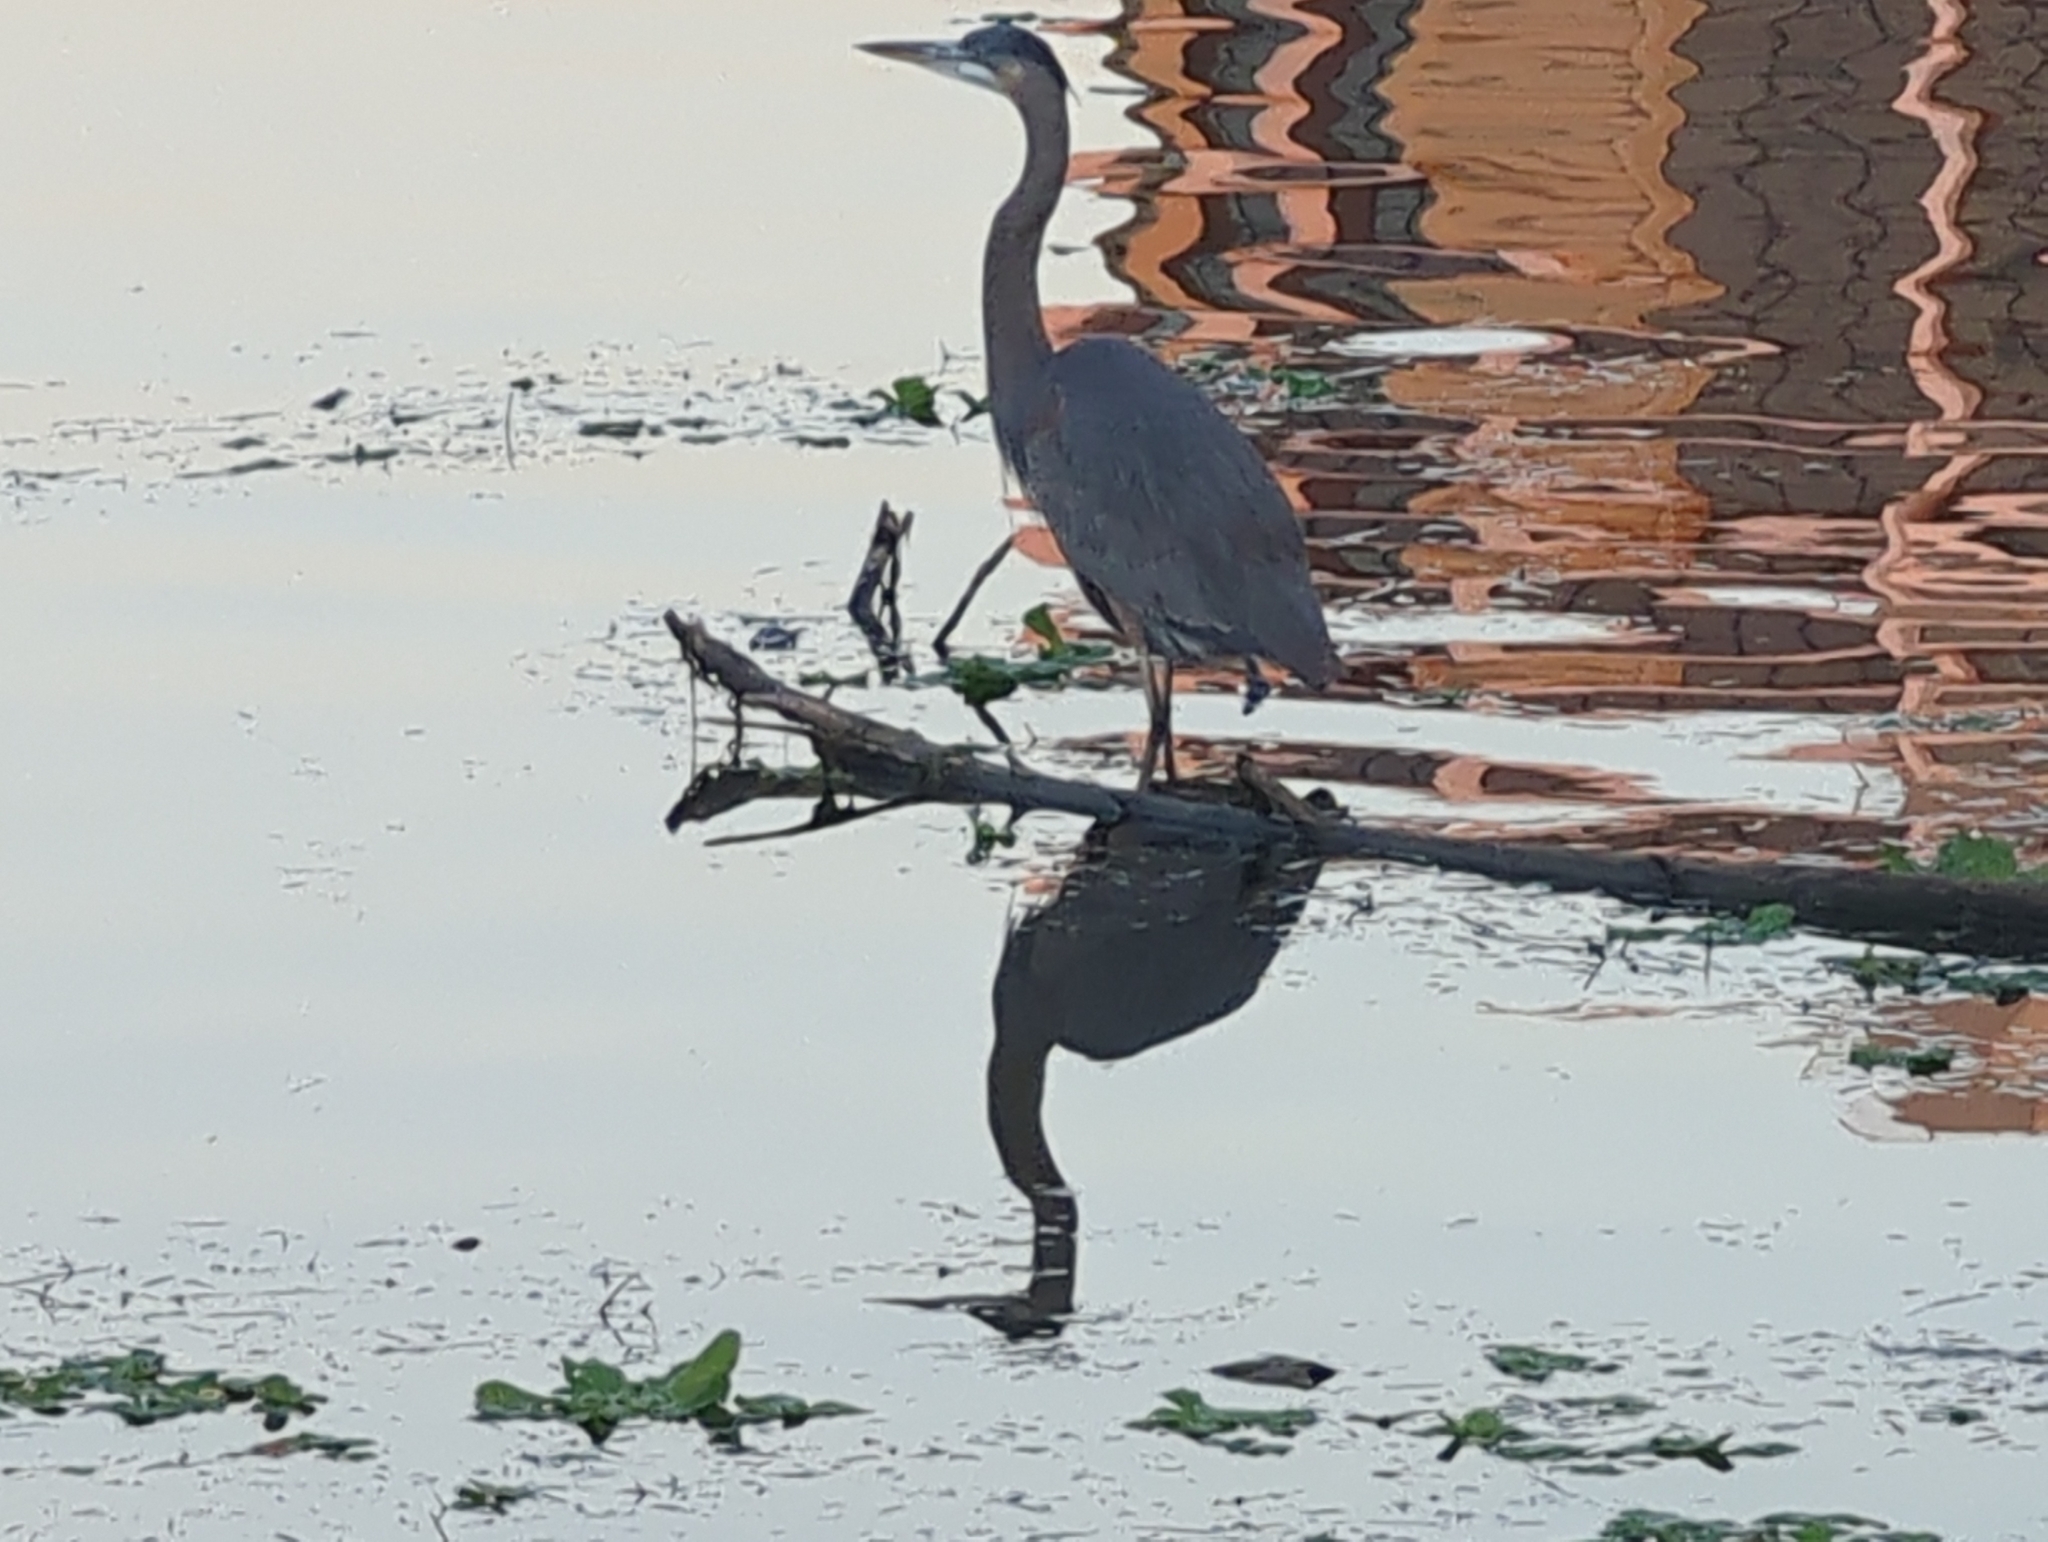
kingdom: Animalia
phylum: Chordata
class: Aves
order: Pelecaniformes
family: Ardeidae
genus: Ardea
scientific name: Ardea herodias
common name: Great blue heron
